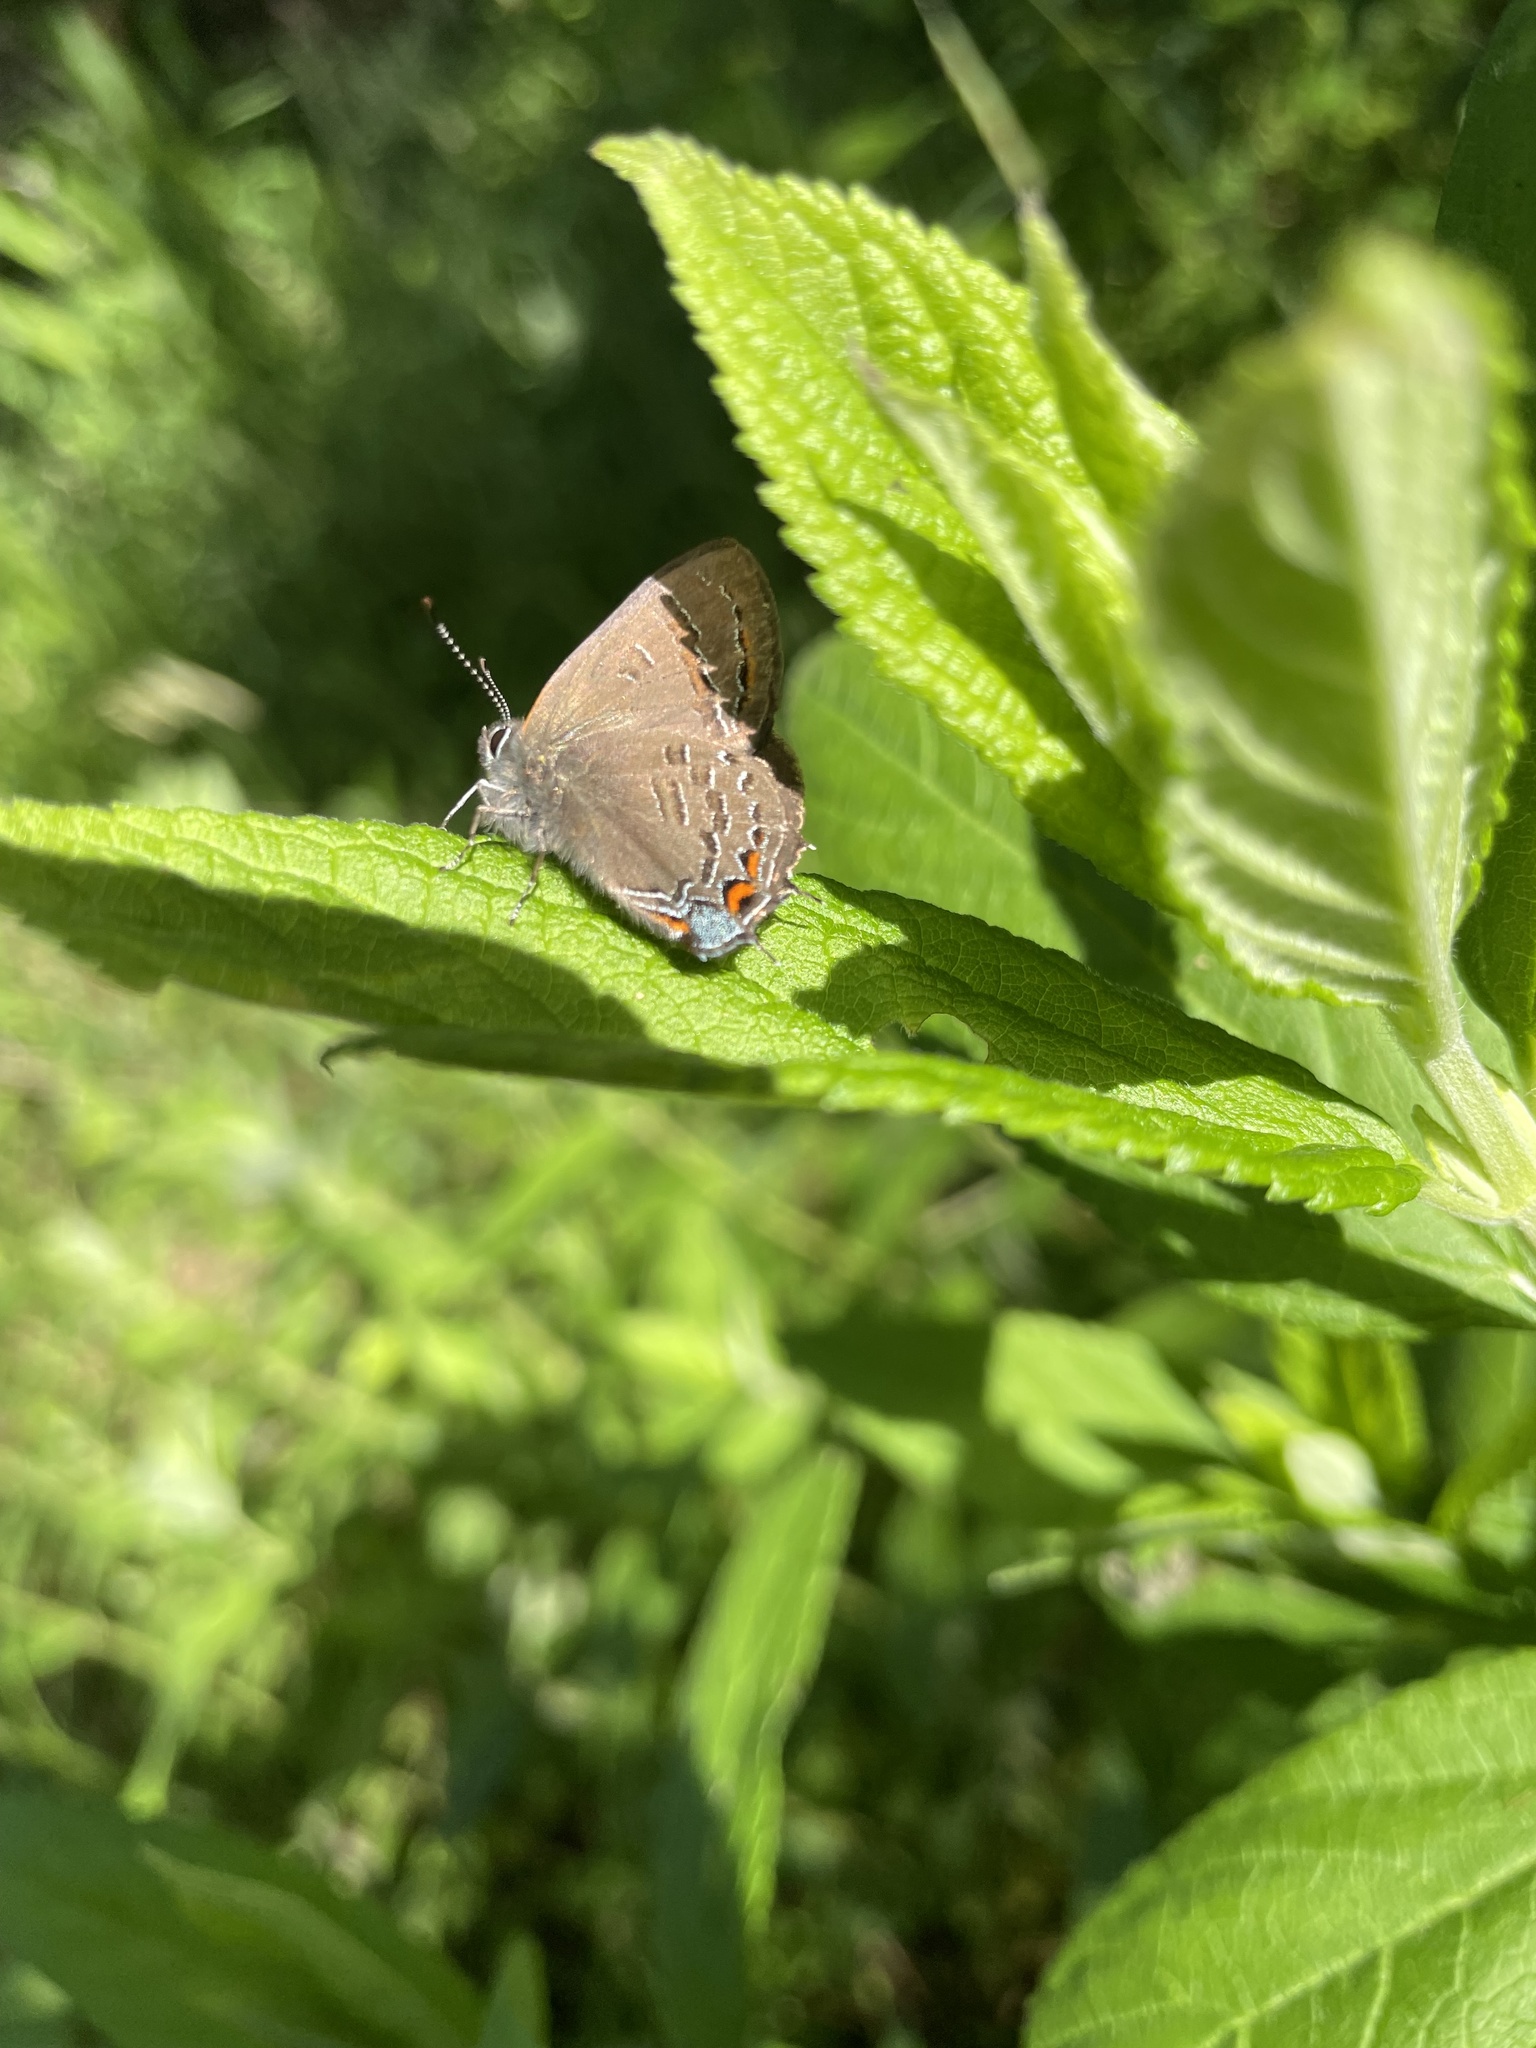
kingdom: Animalia
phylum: Arthropoda
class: Insecta
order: Lepidoptera
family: Lycaenidae
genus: Satyrium
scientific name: Satyrium calanus
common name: Banded hairstreak
